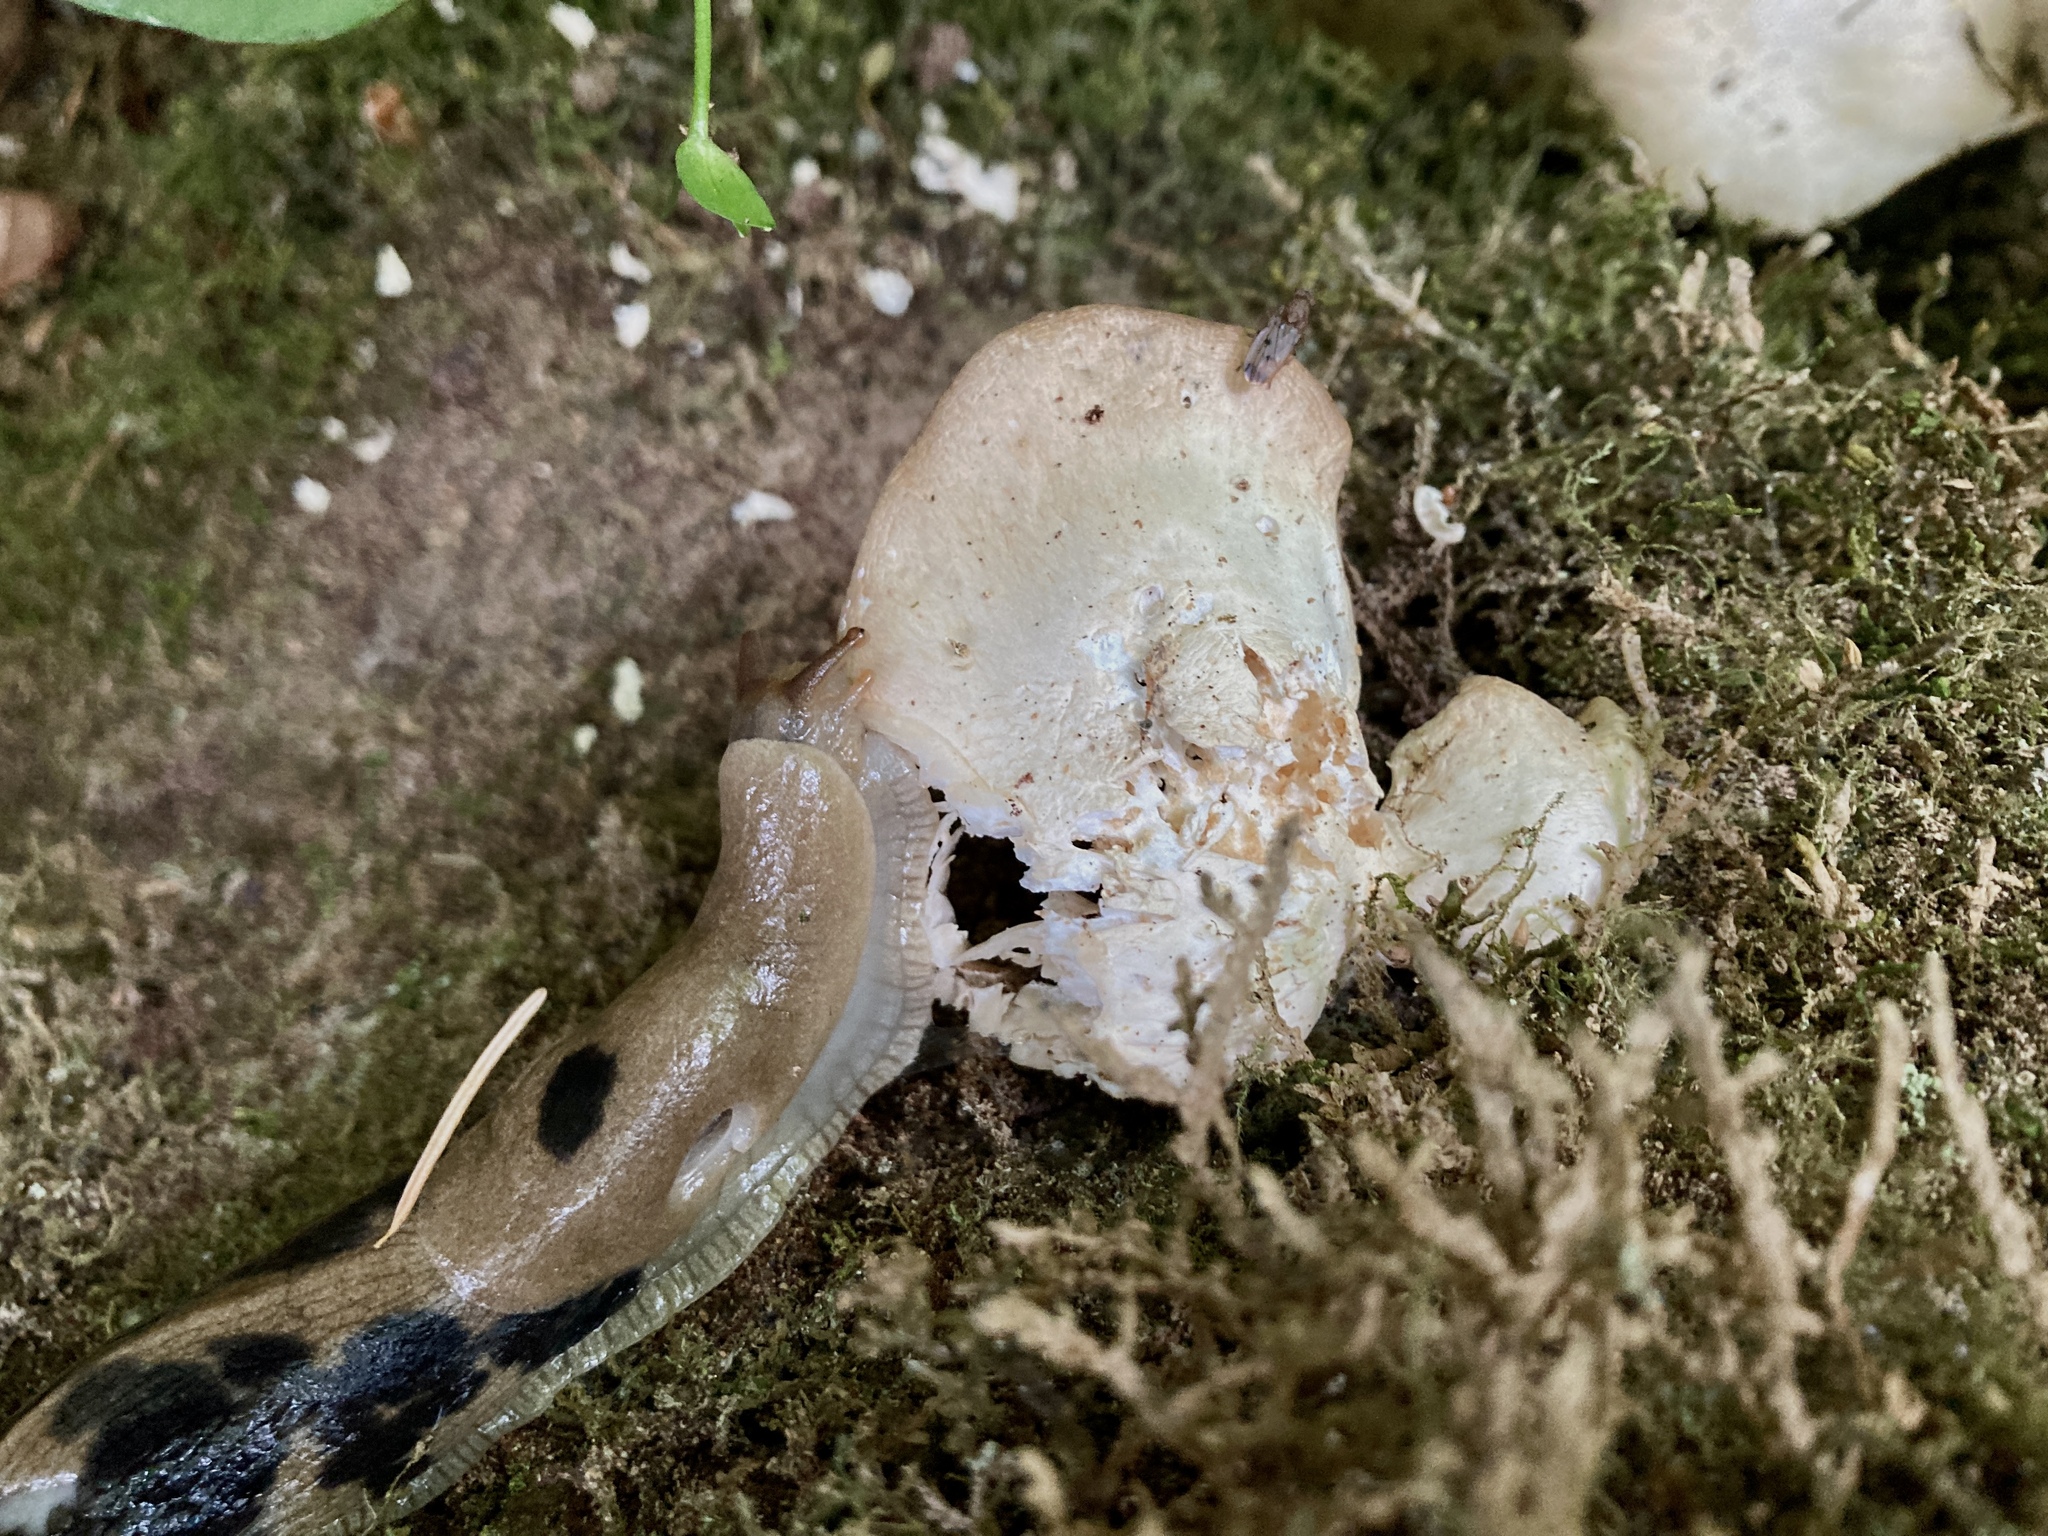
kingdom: Animalia
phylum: Mollusca
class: Gastropoda
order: Stylommatophora
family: Ariolimacidae
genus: Ariolimax
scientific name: Ariolimax columbianus
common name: Pacific banana slug
